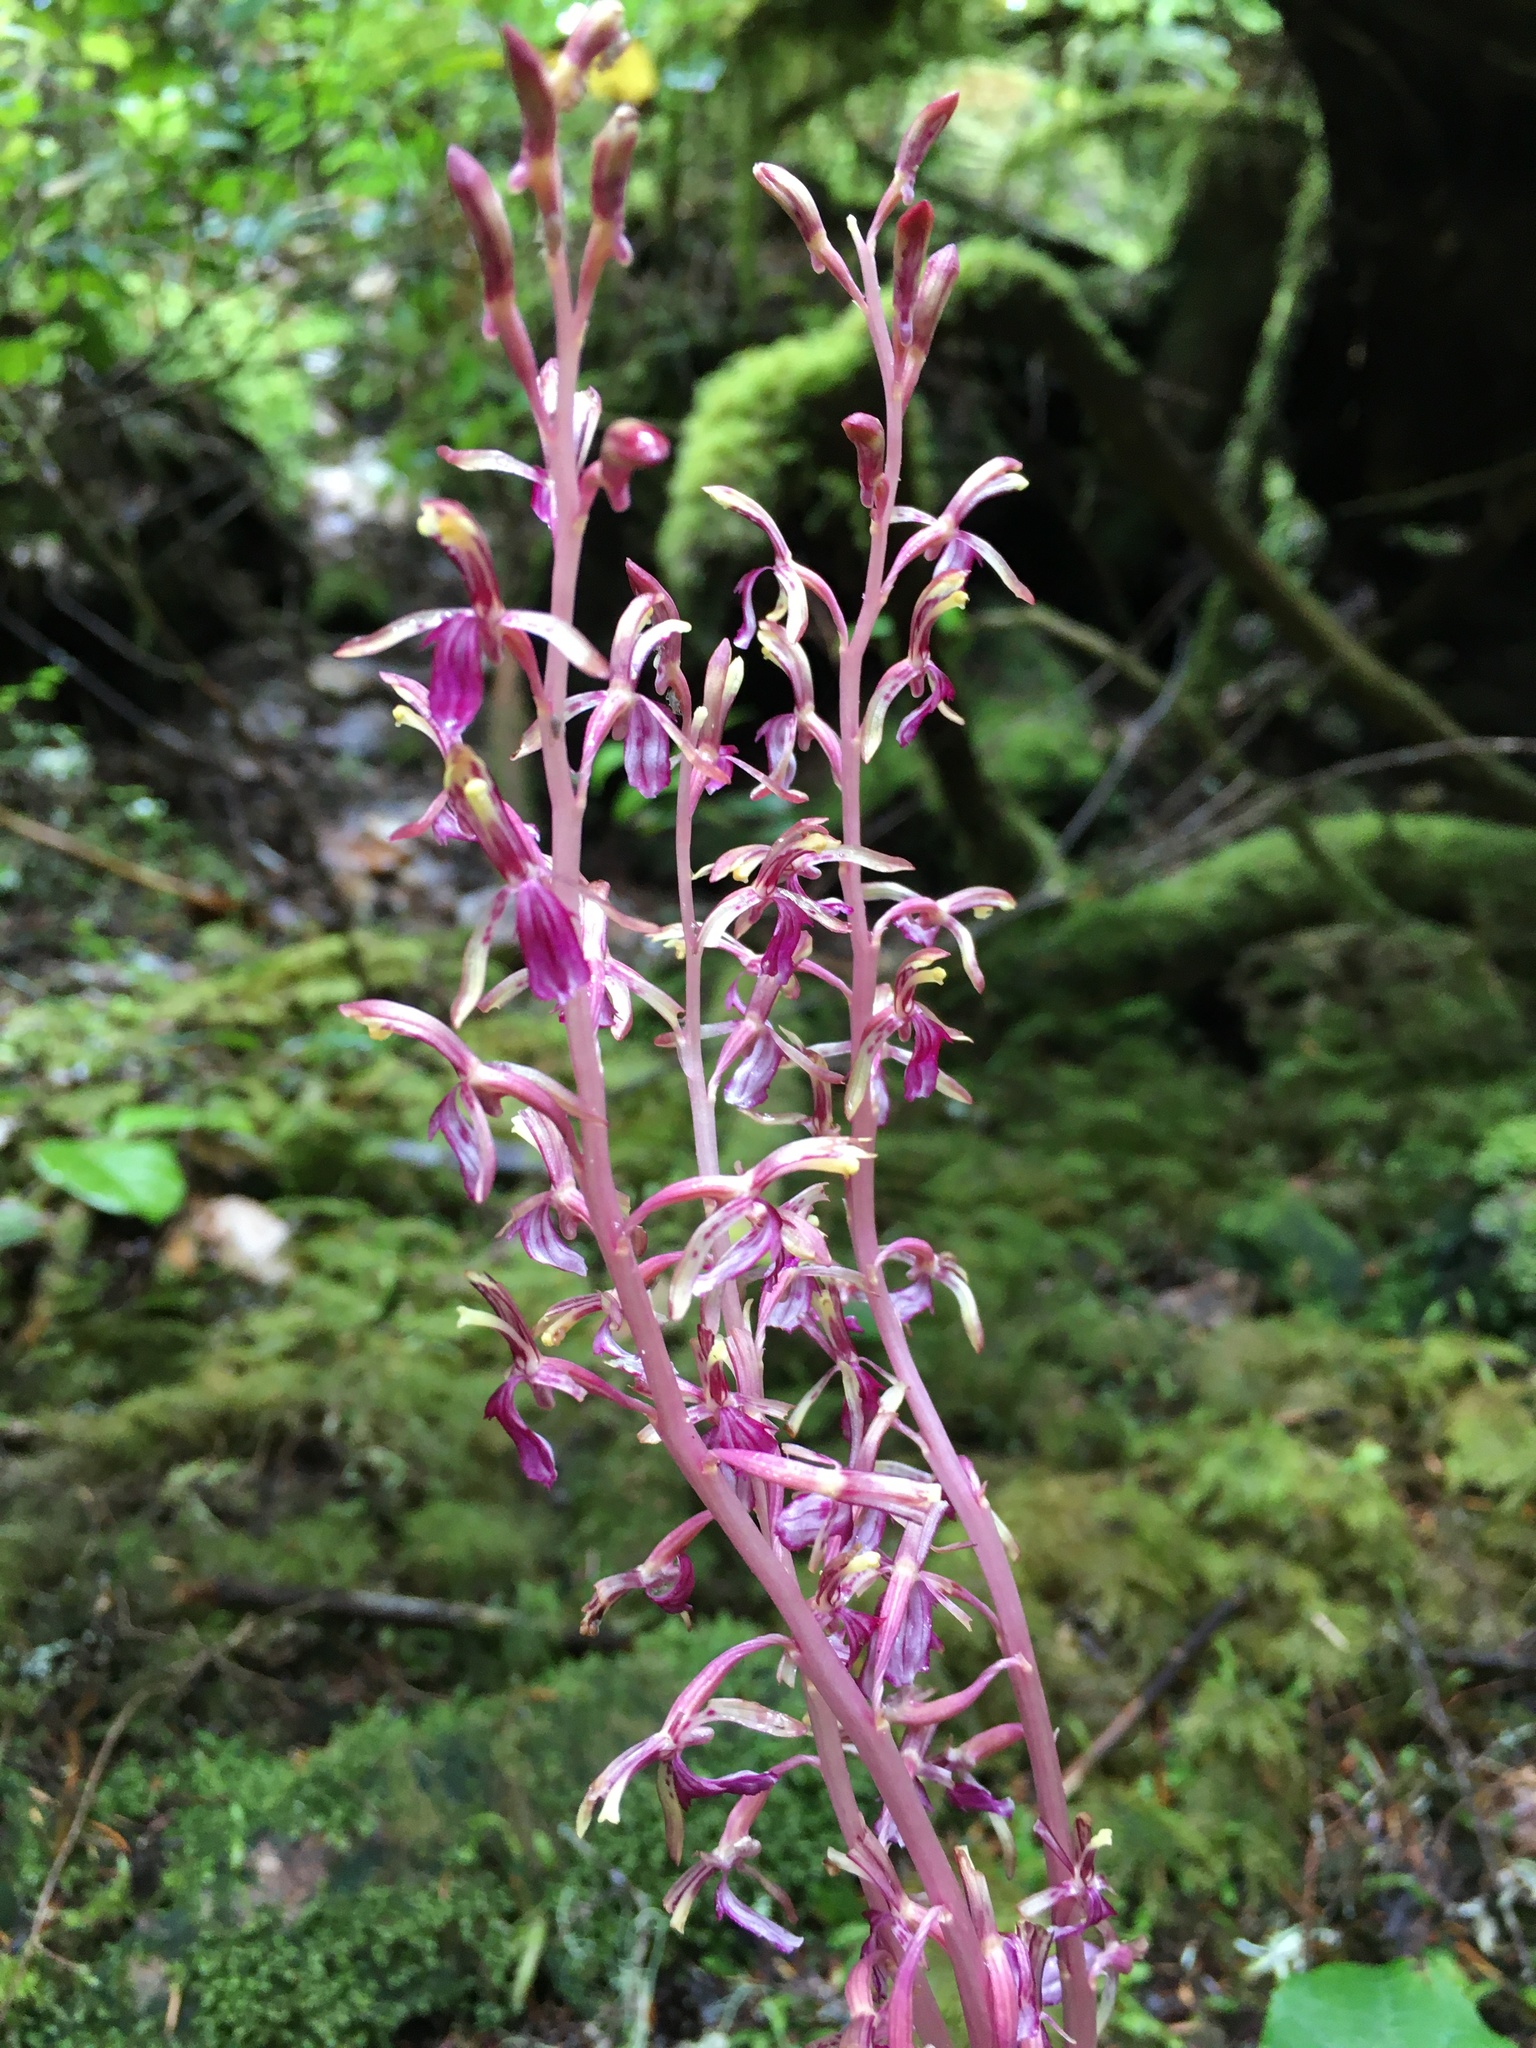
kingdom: Plantae
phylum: Tracheophyta
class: Liliopsida
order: Asparagales
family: Orchidaceae
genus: Corallorhiza
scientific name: Corallorhiza mertensiana
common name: Pacific coralroot
